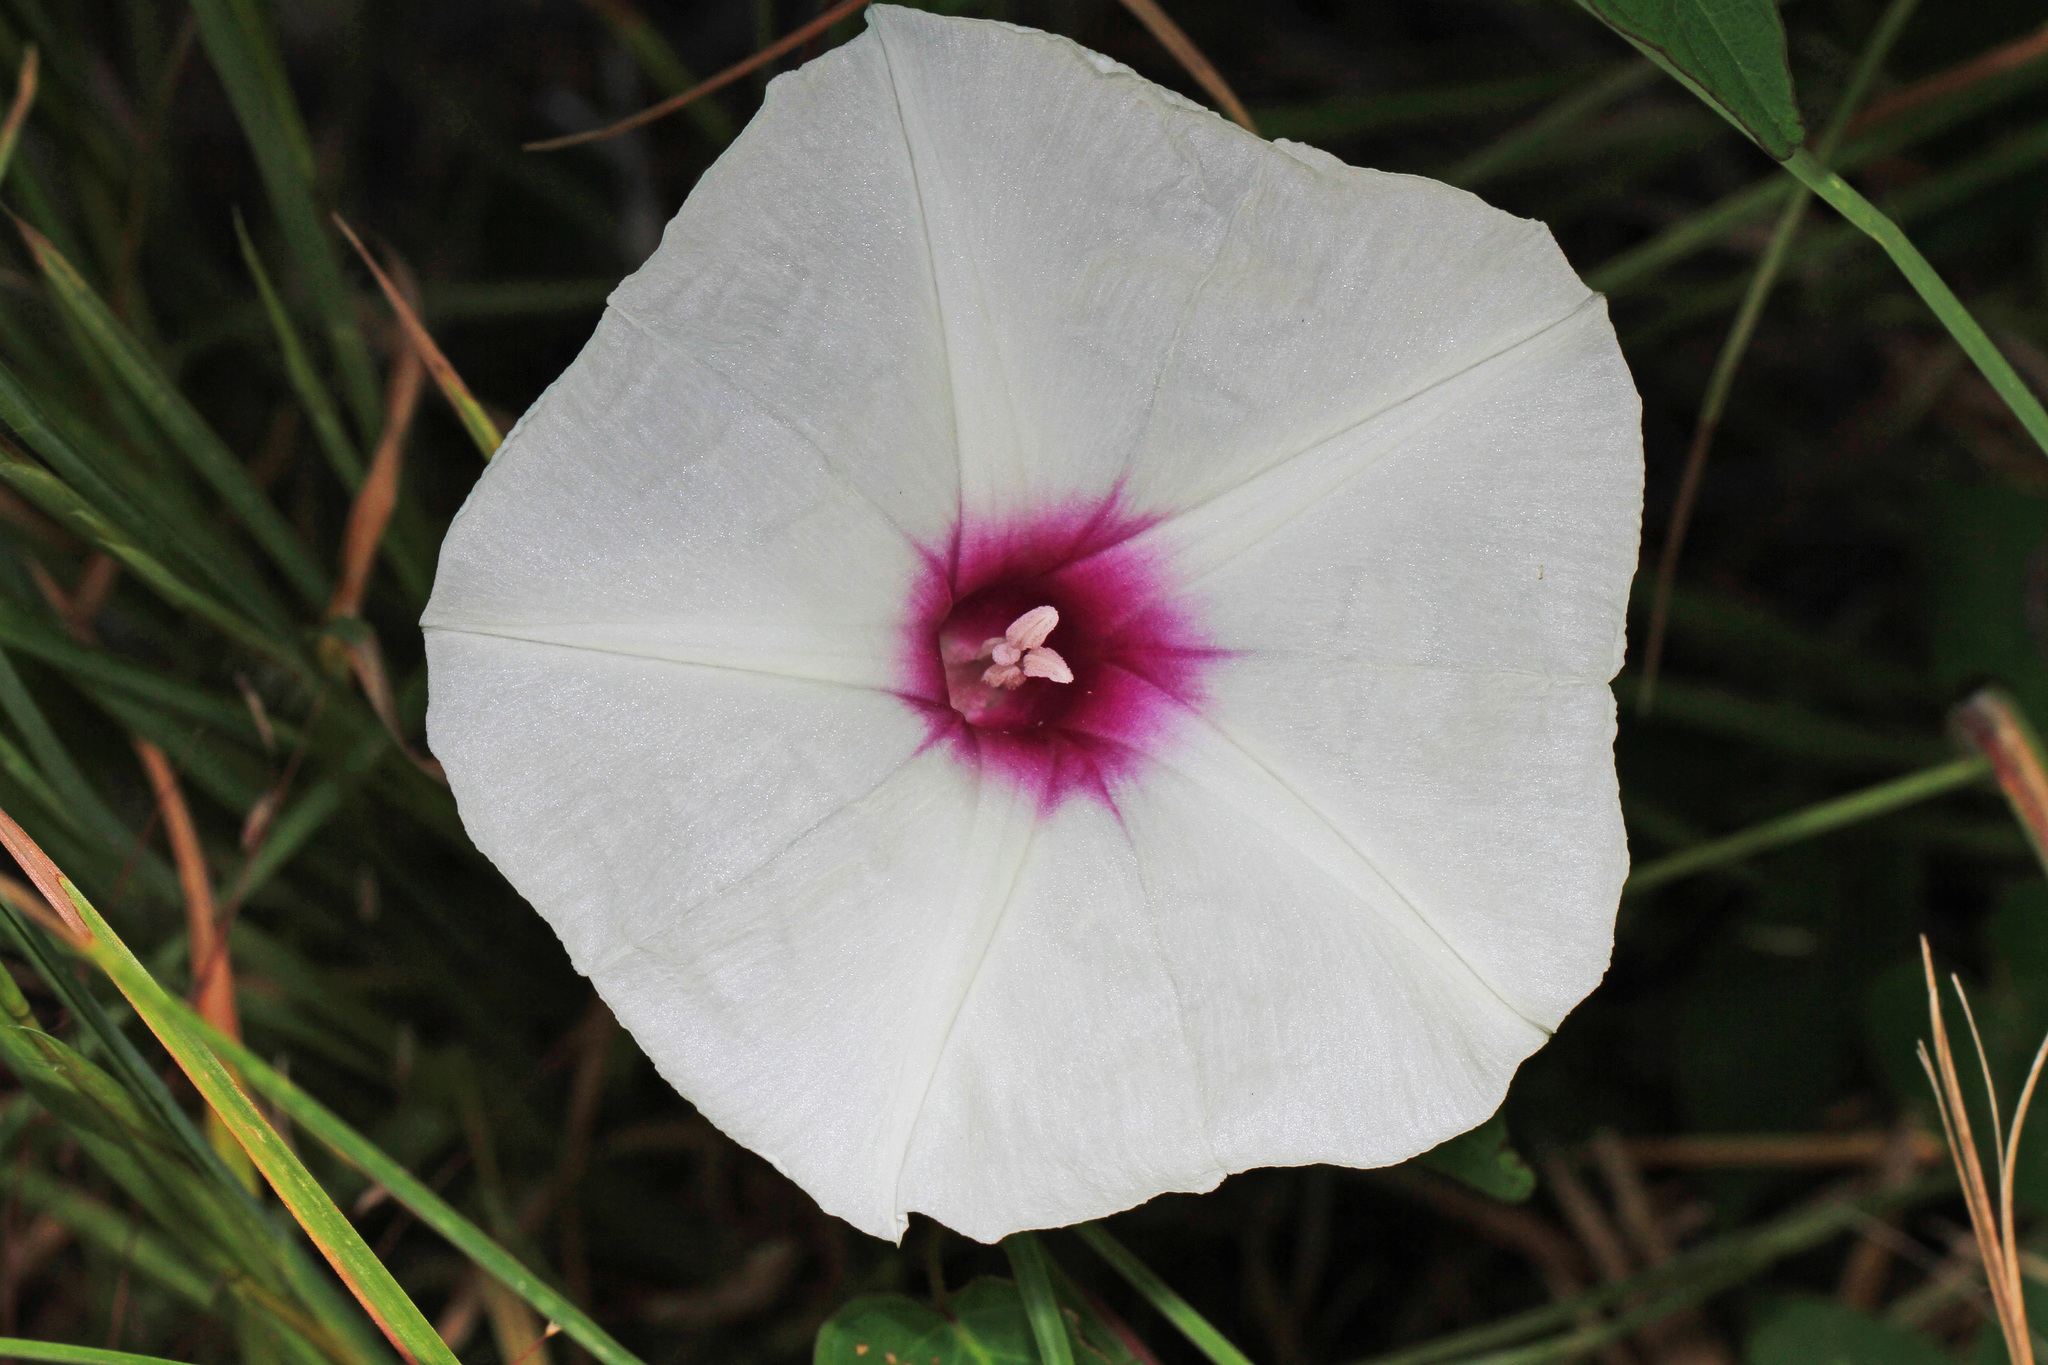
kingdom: Plantae
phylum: Tracheophyta
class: Magnoliopsida
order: Solanales
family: Convolvulaceae
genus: Ipomoea
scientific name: Ipomoea pandurata
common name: Man-of-the-earth
